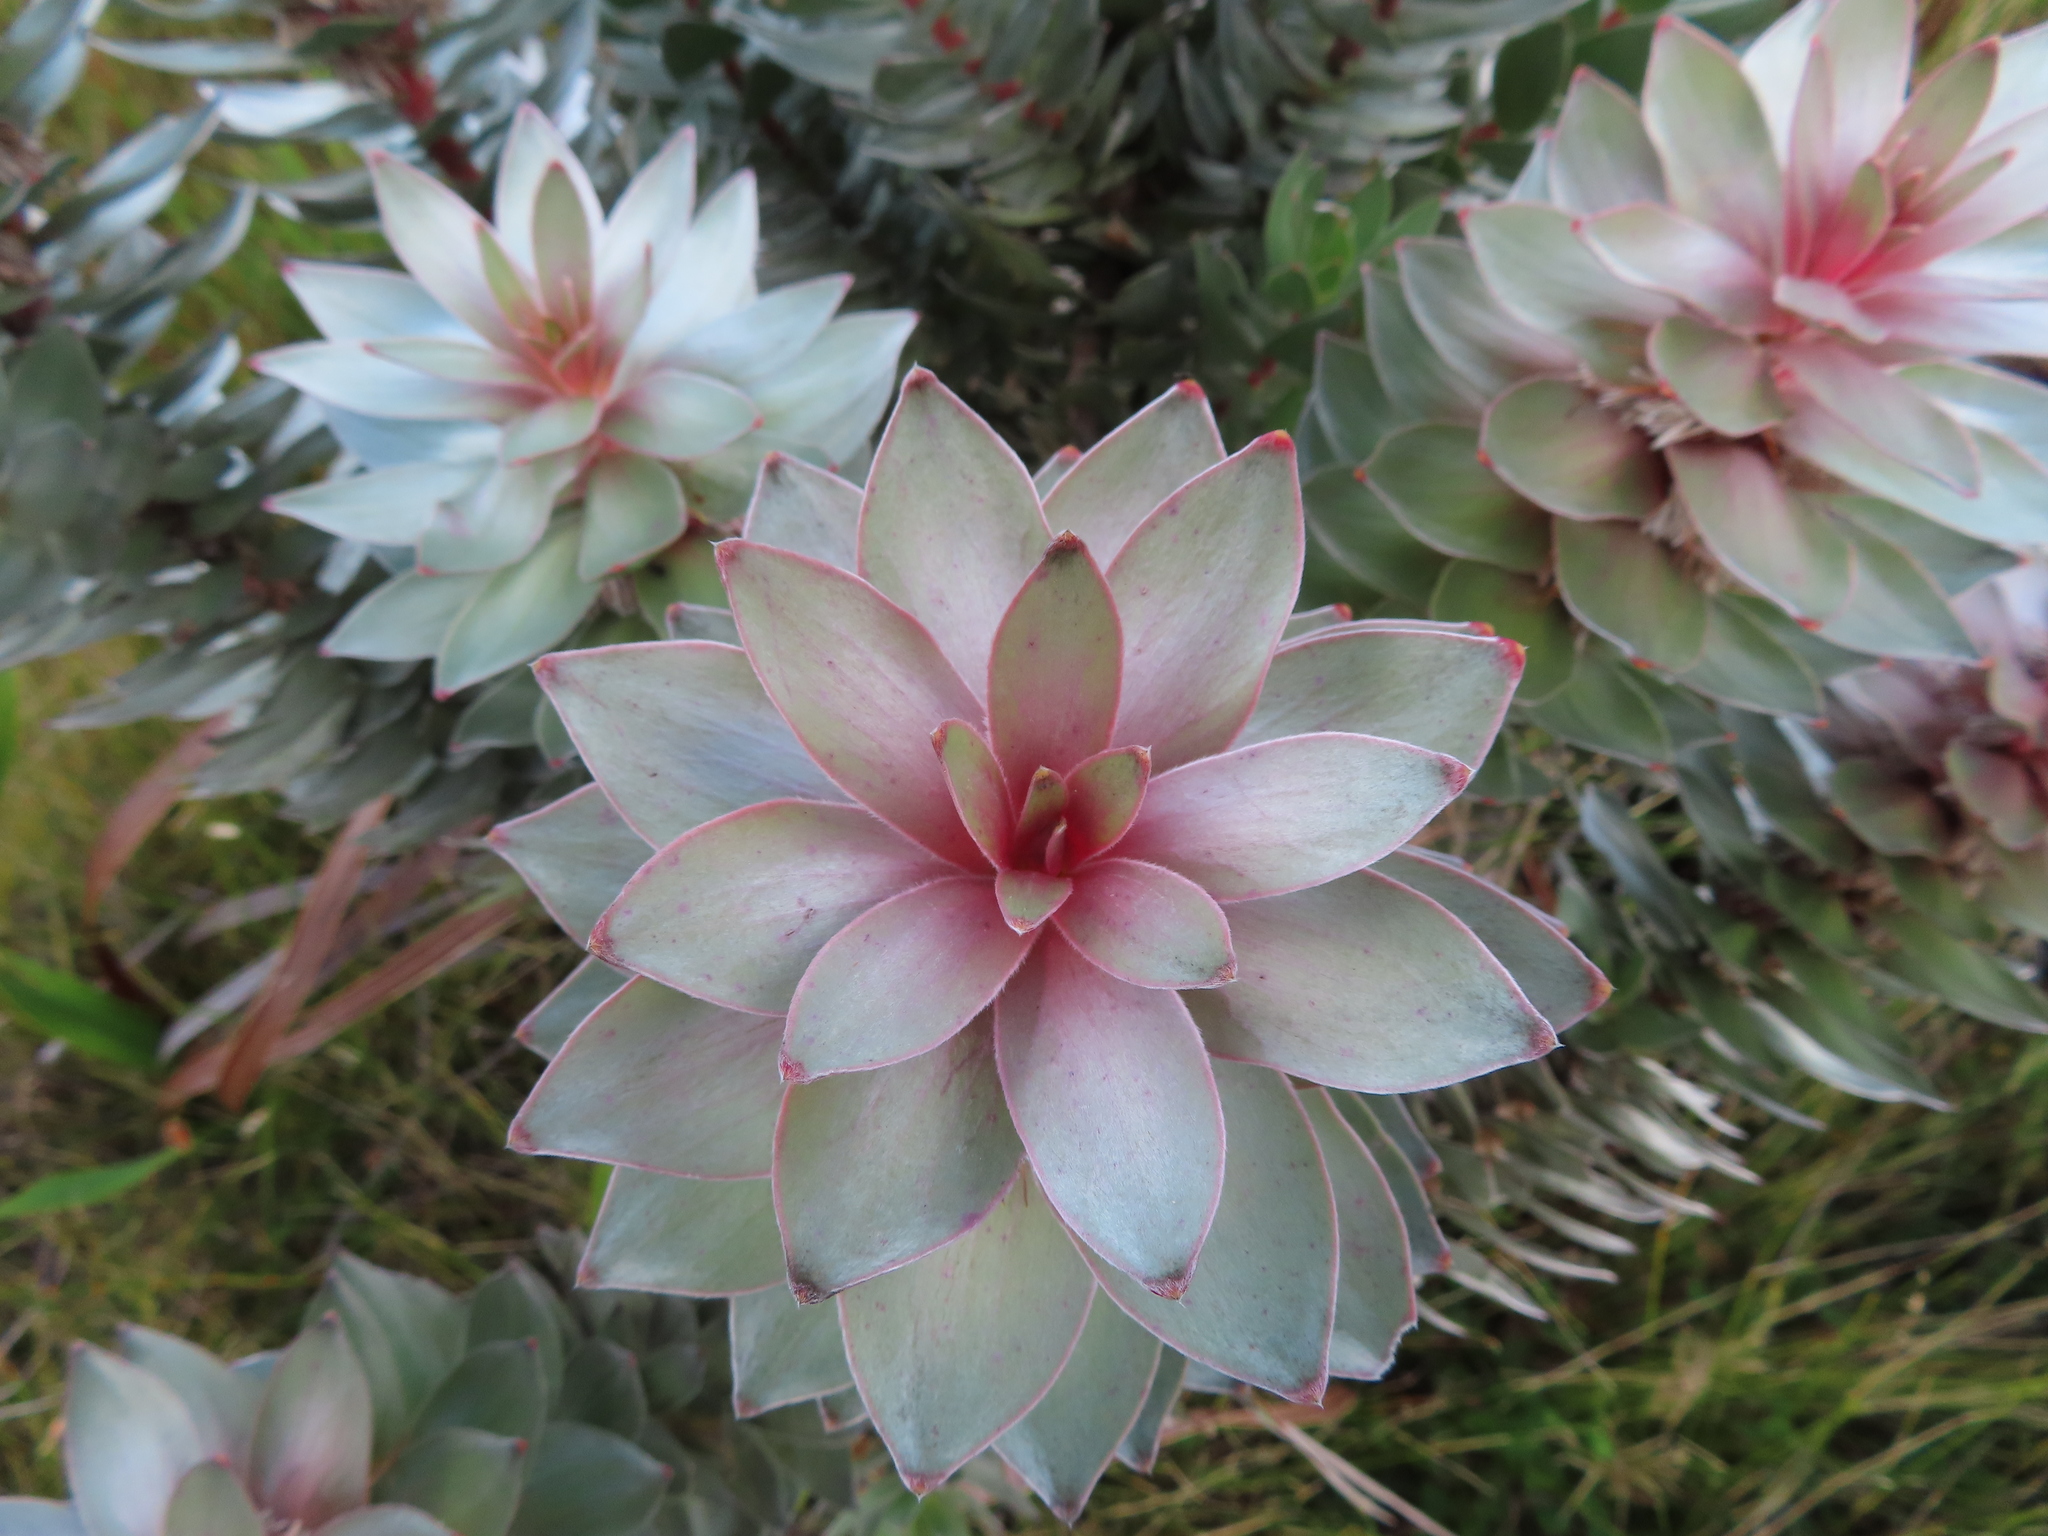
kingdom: Plantae
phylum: Tracheophyta
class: Magnoliopsida
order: Proteales
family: Proteaceae
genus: Mimetes
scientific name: Mimetes argenteus
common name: Silver pagoda
